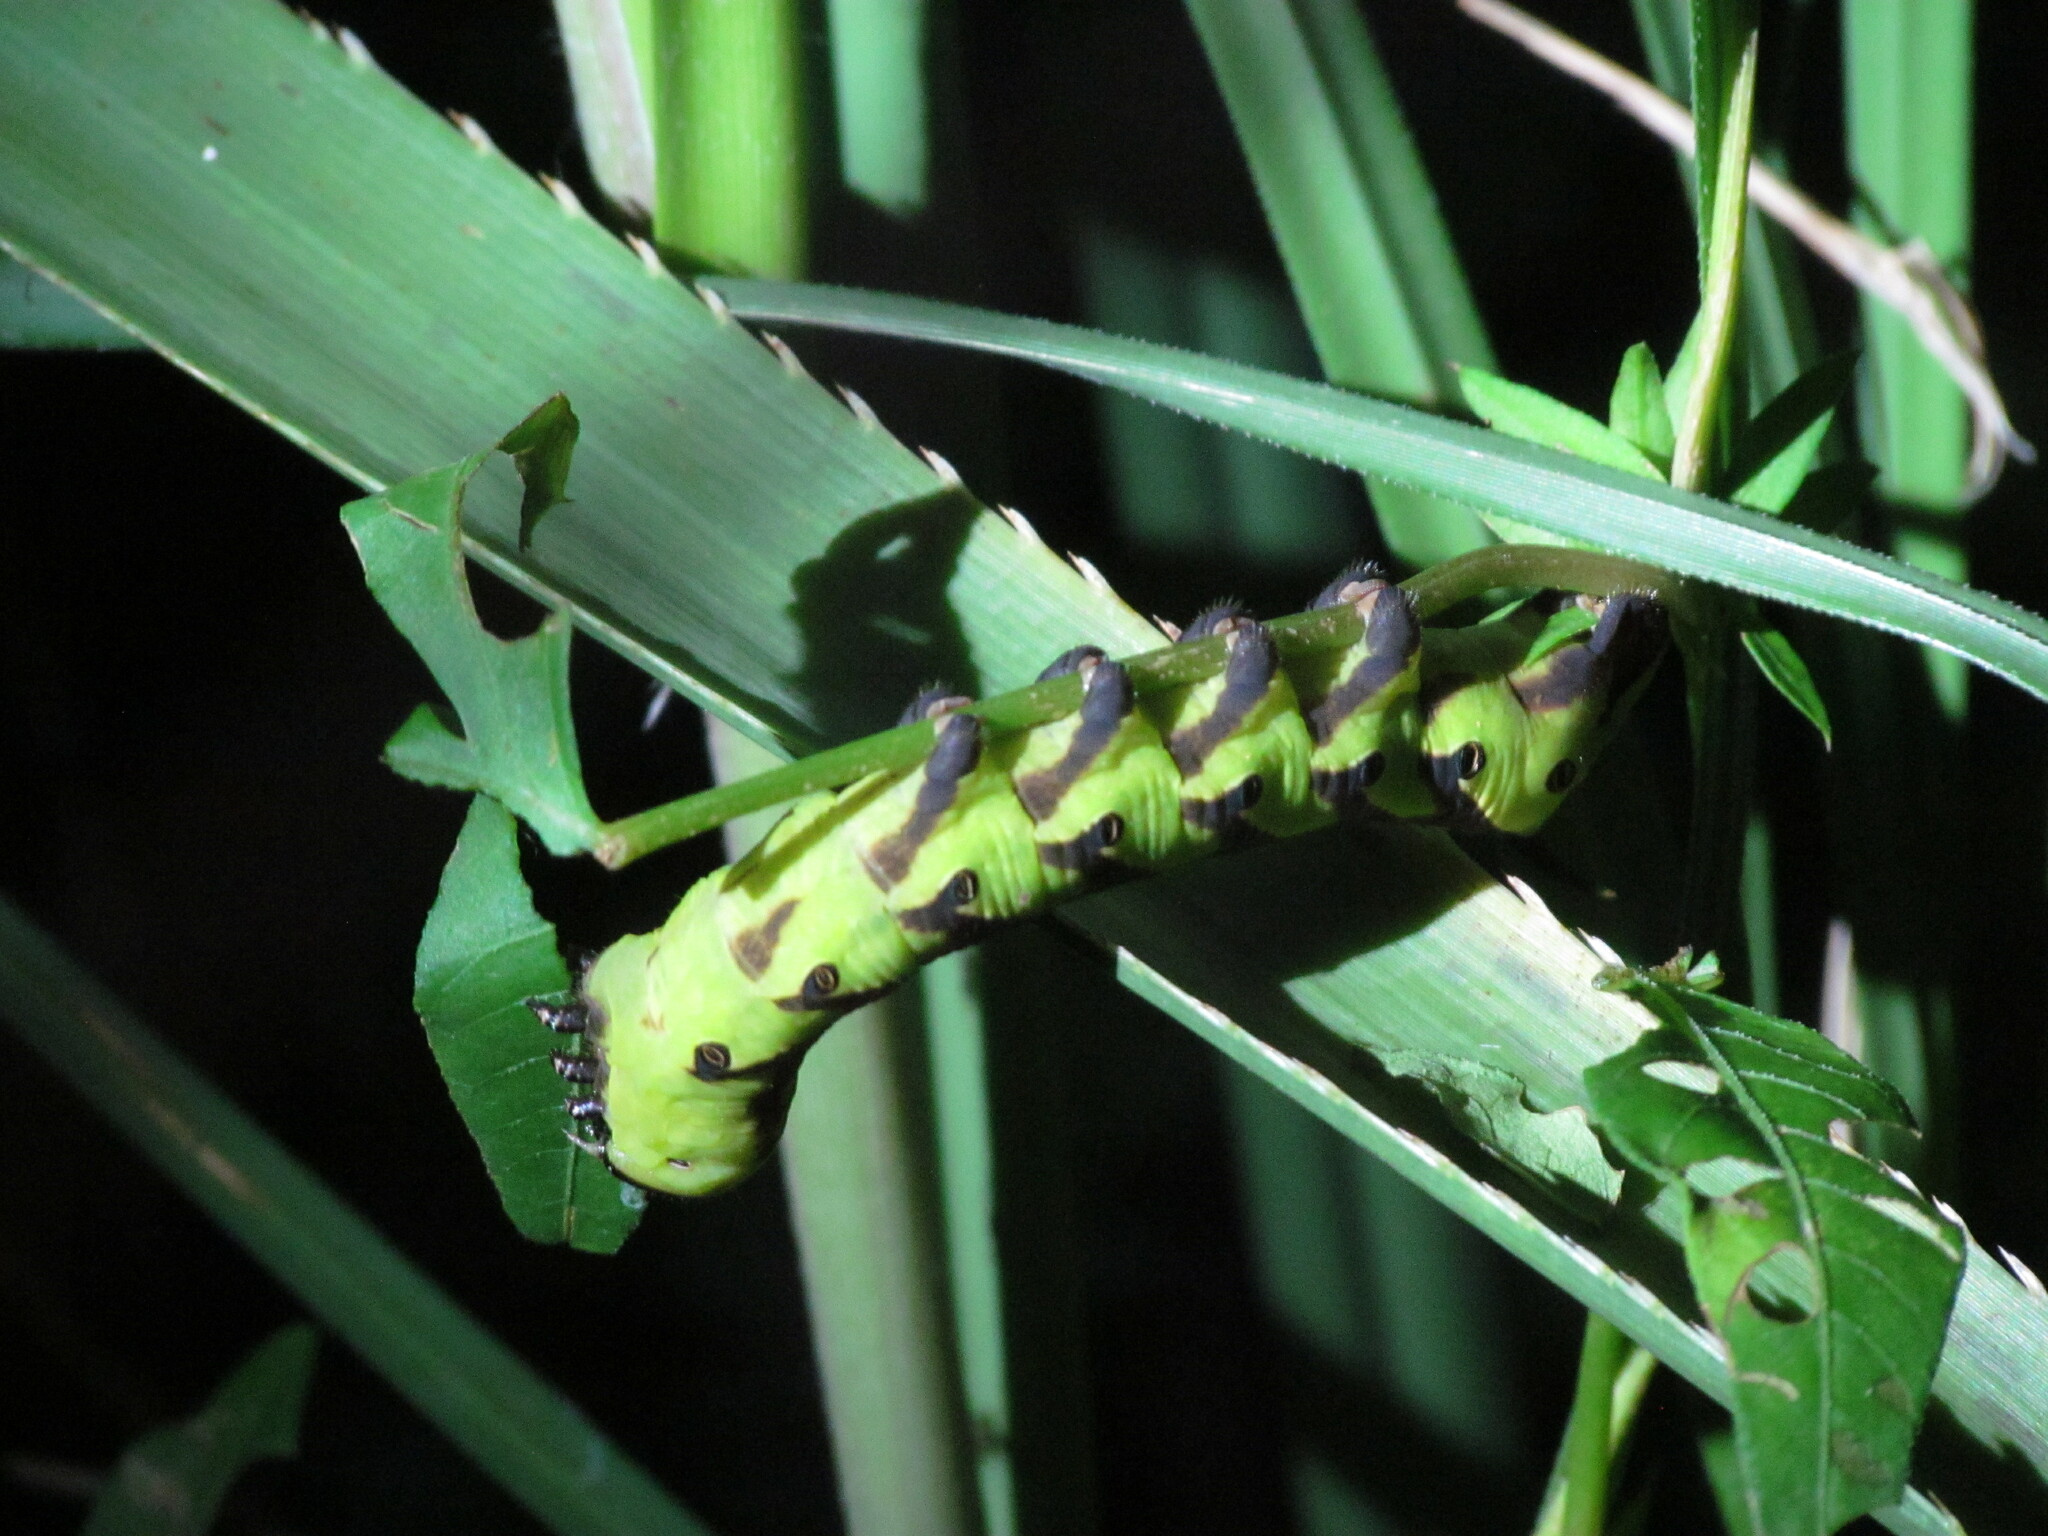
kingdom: Animalia
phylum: Arthropoda
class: Insecta
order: Lepidoptera
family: Sphingidae
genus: Agrius
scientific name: Agrius cingulata
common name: Pink-spotted hawkmoth
